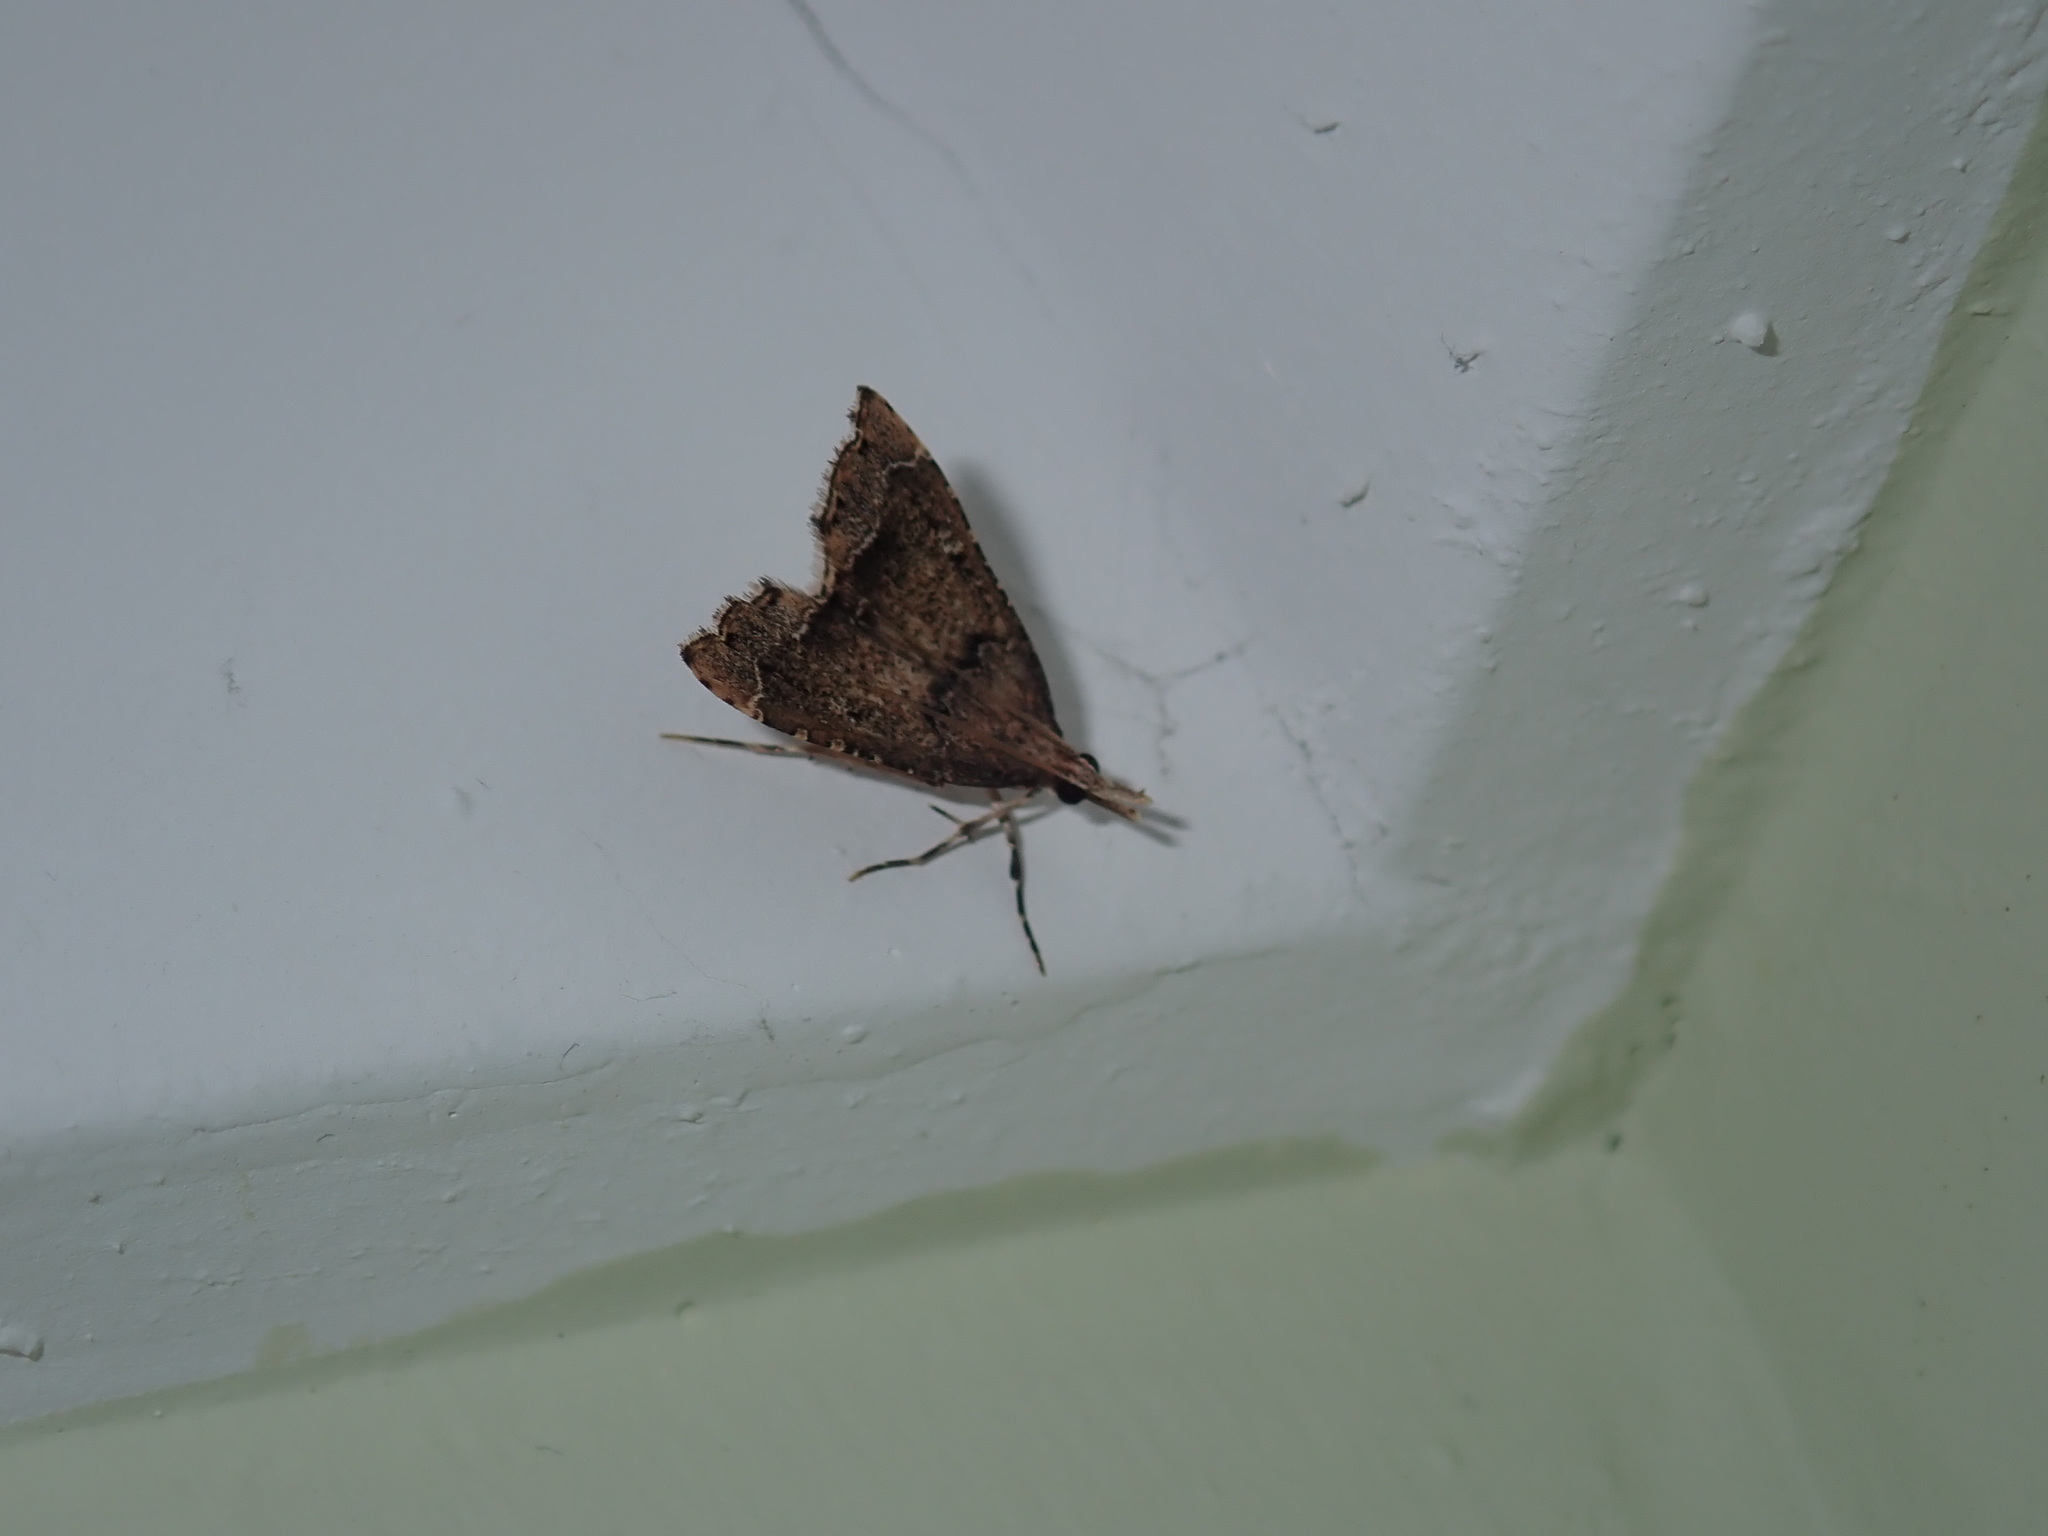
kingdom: Animalia
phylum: Arthropoda
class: Insecta
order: Lepidoptera
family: Crambidae
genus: Diplopseustis
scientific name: Diplopseustis perieresalis
